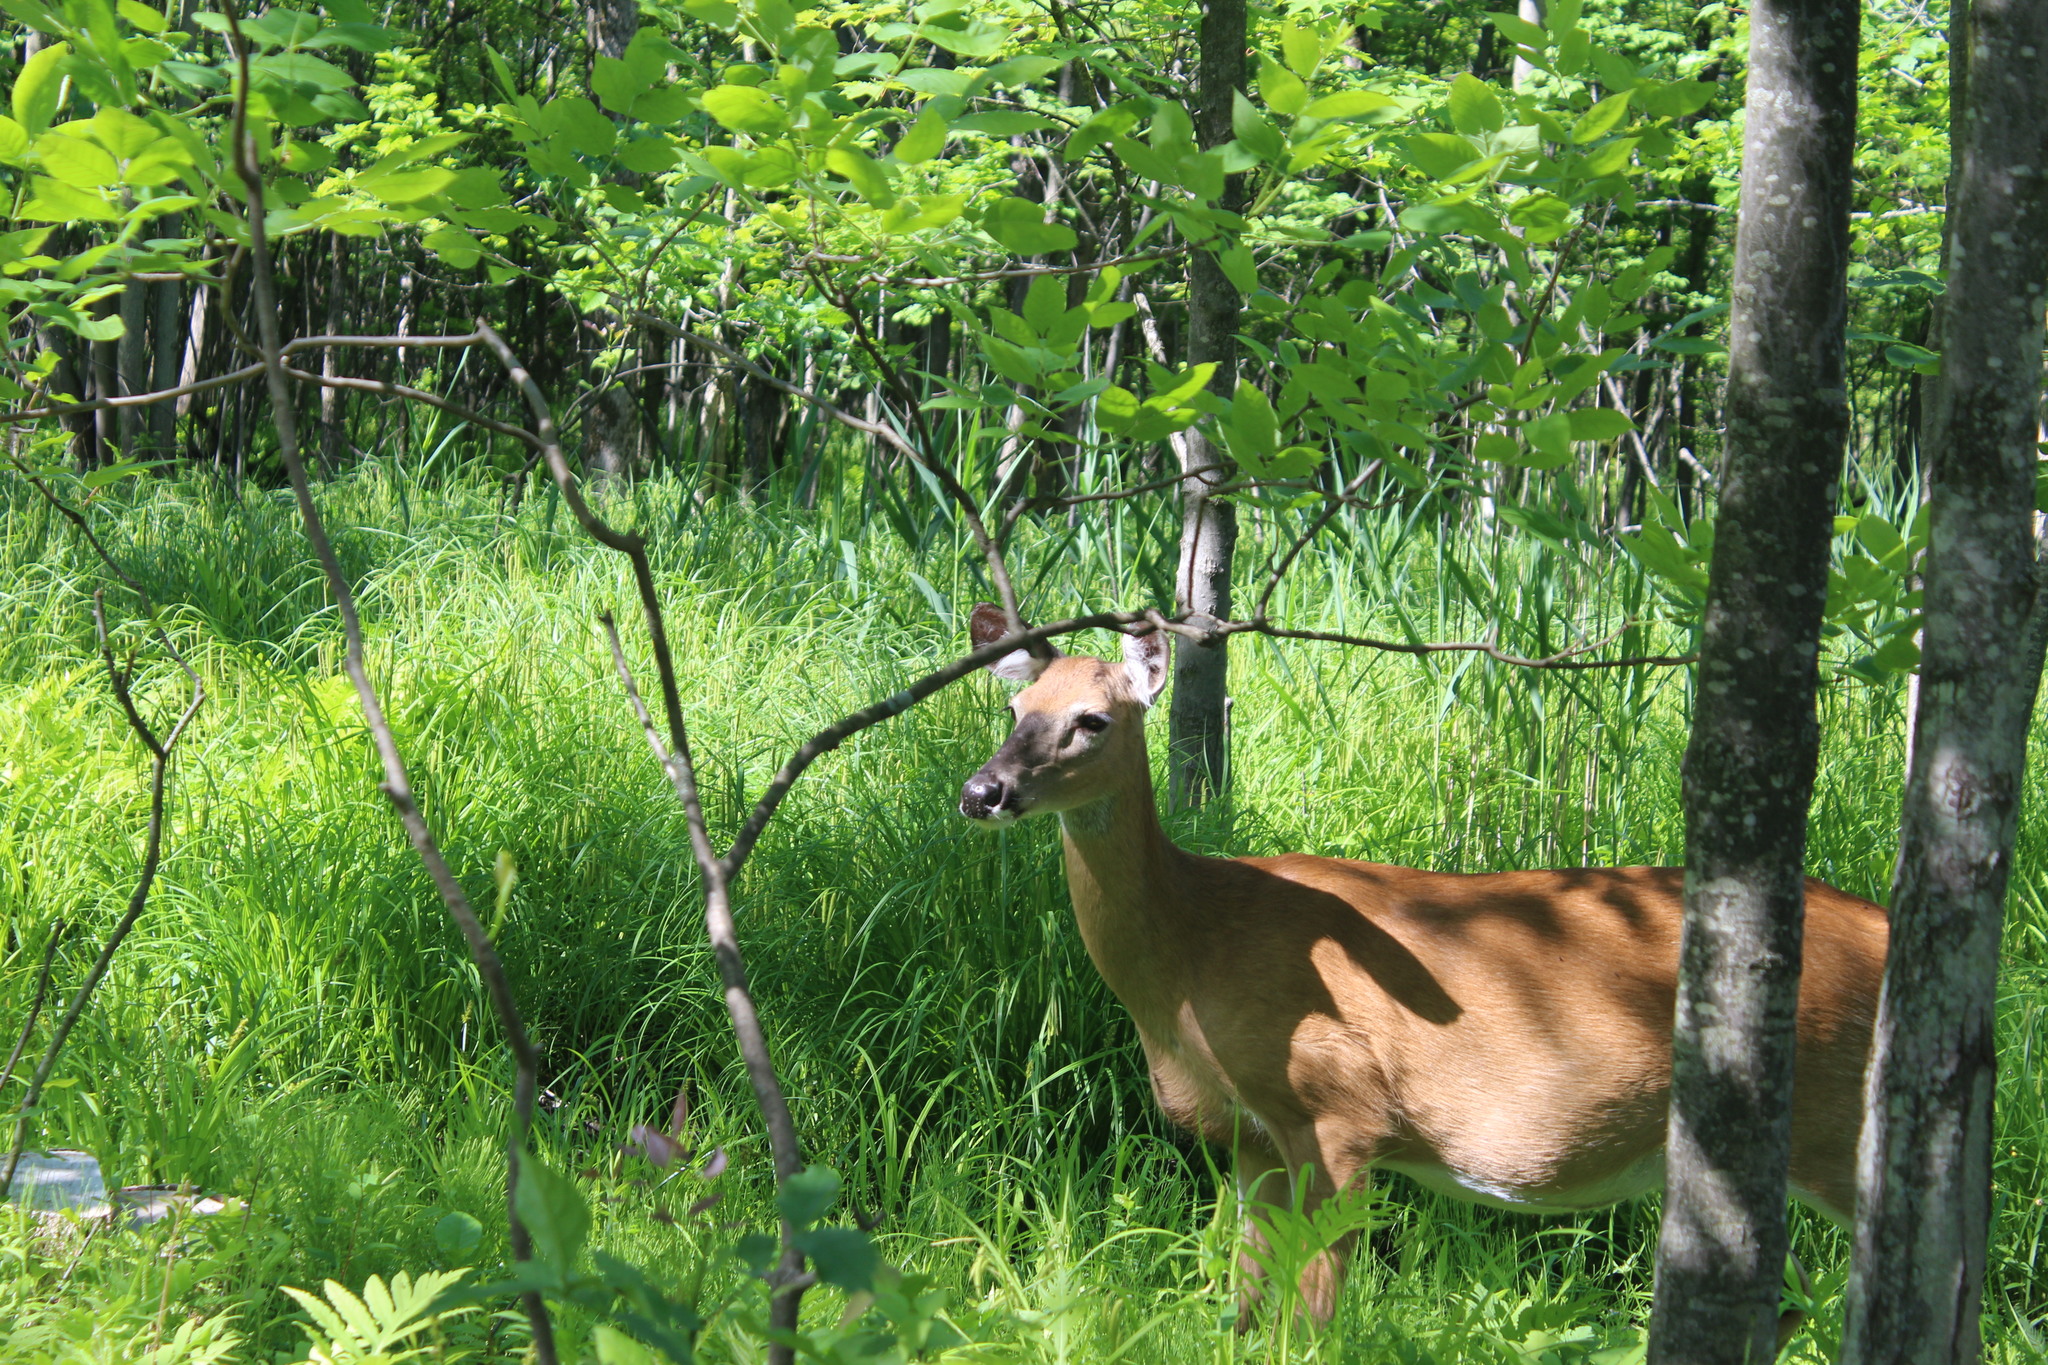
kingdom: Animalia
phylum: Chordata
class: Mammalia
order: Artiodactyla
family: Cervidae
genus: Odocoileus
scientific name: Odocoileus virginianus
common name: White-tailed deer
